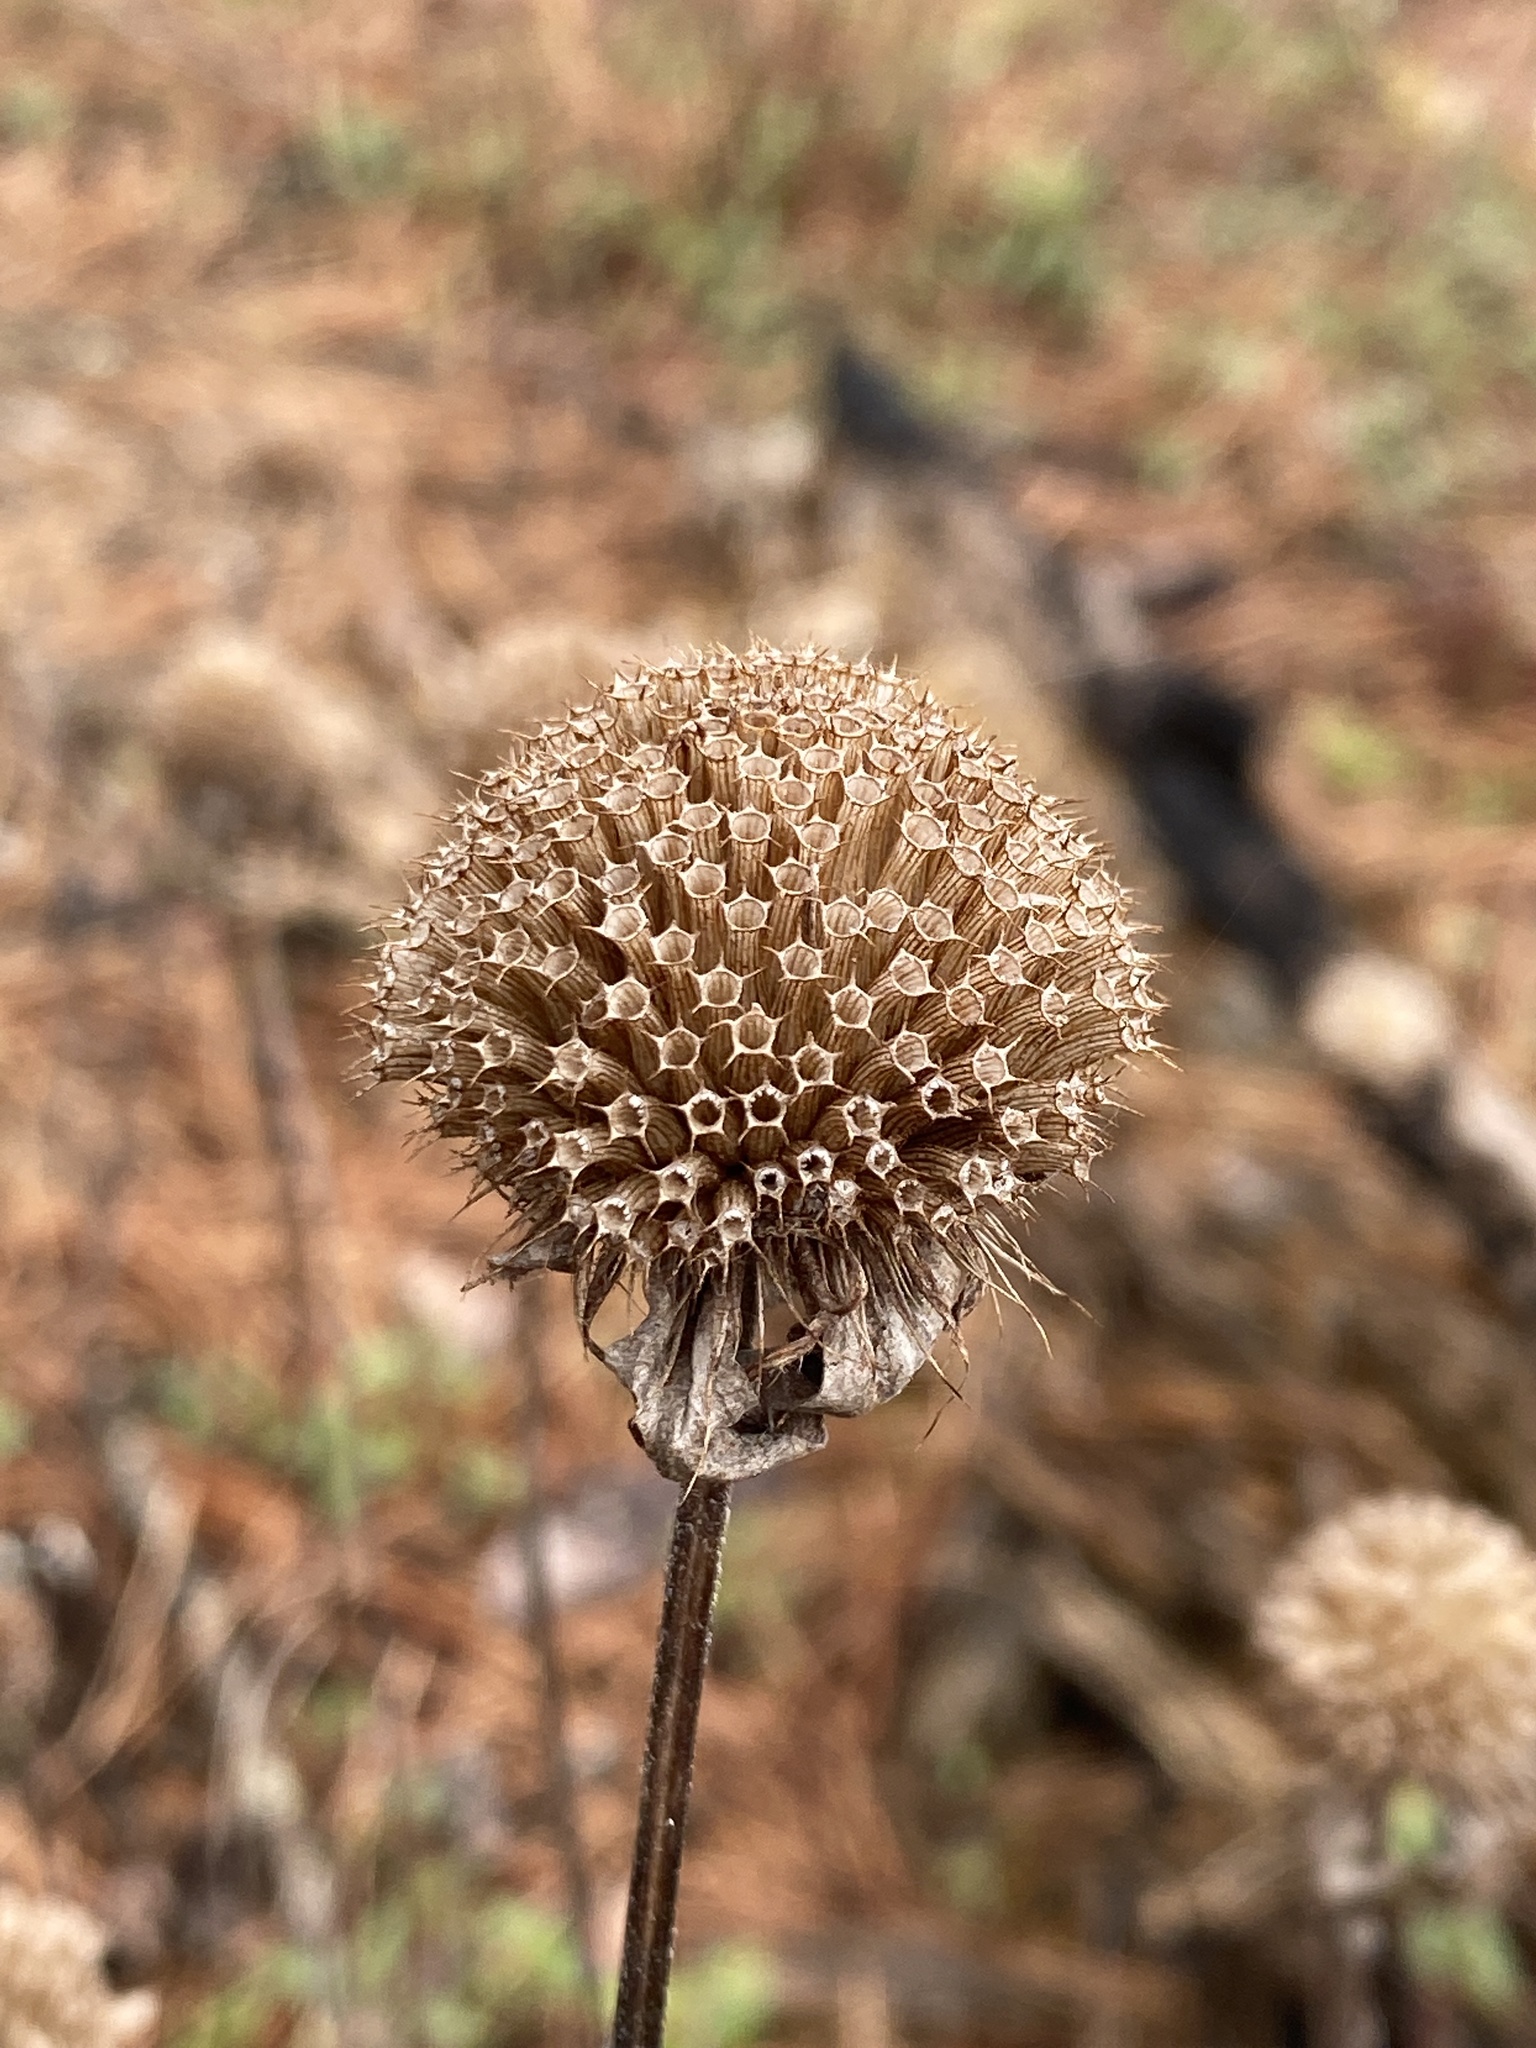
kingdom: Plantae
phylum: Tracheophyta
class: Magnoliopsida
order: Lamiales
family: Lamiaceae
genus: Monarda
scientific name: Monarda fistulosa
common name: Purple beebalm
